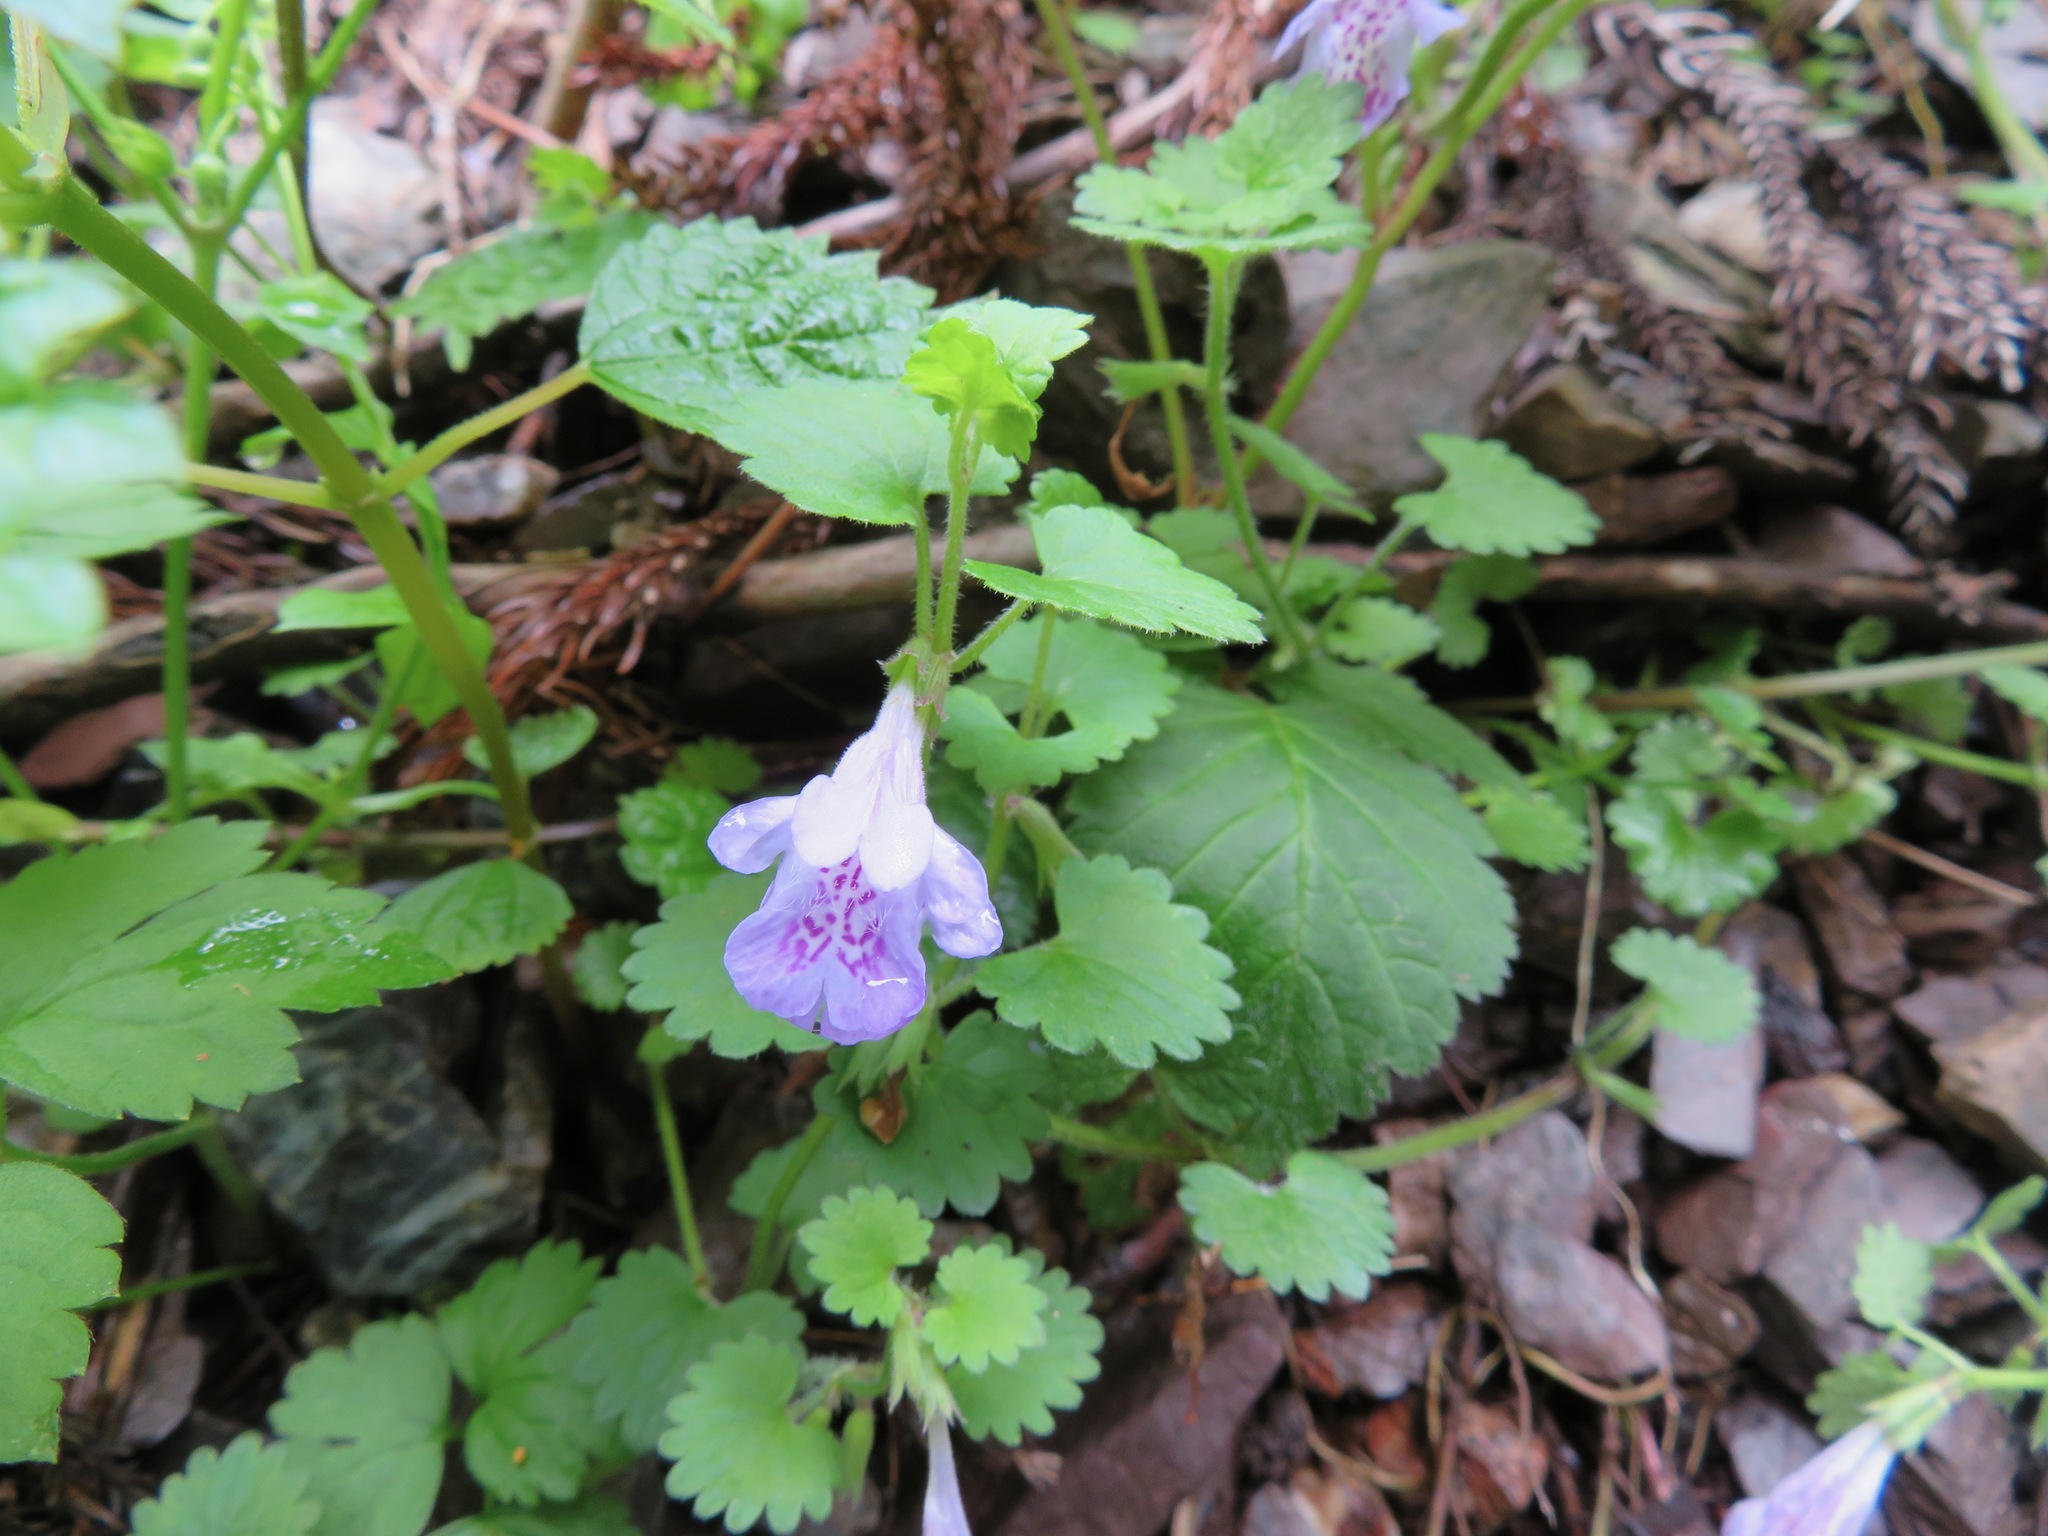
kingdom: Plantae
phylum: Tracheophyta
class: Magnoliopsida
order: Lamiales
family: Lamiaceae
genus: Glechoma
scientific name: Glechoma grandis
